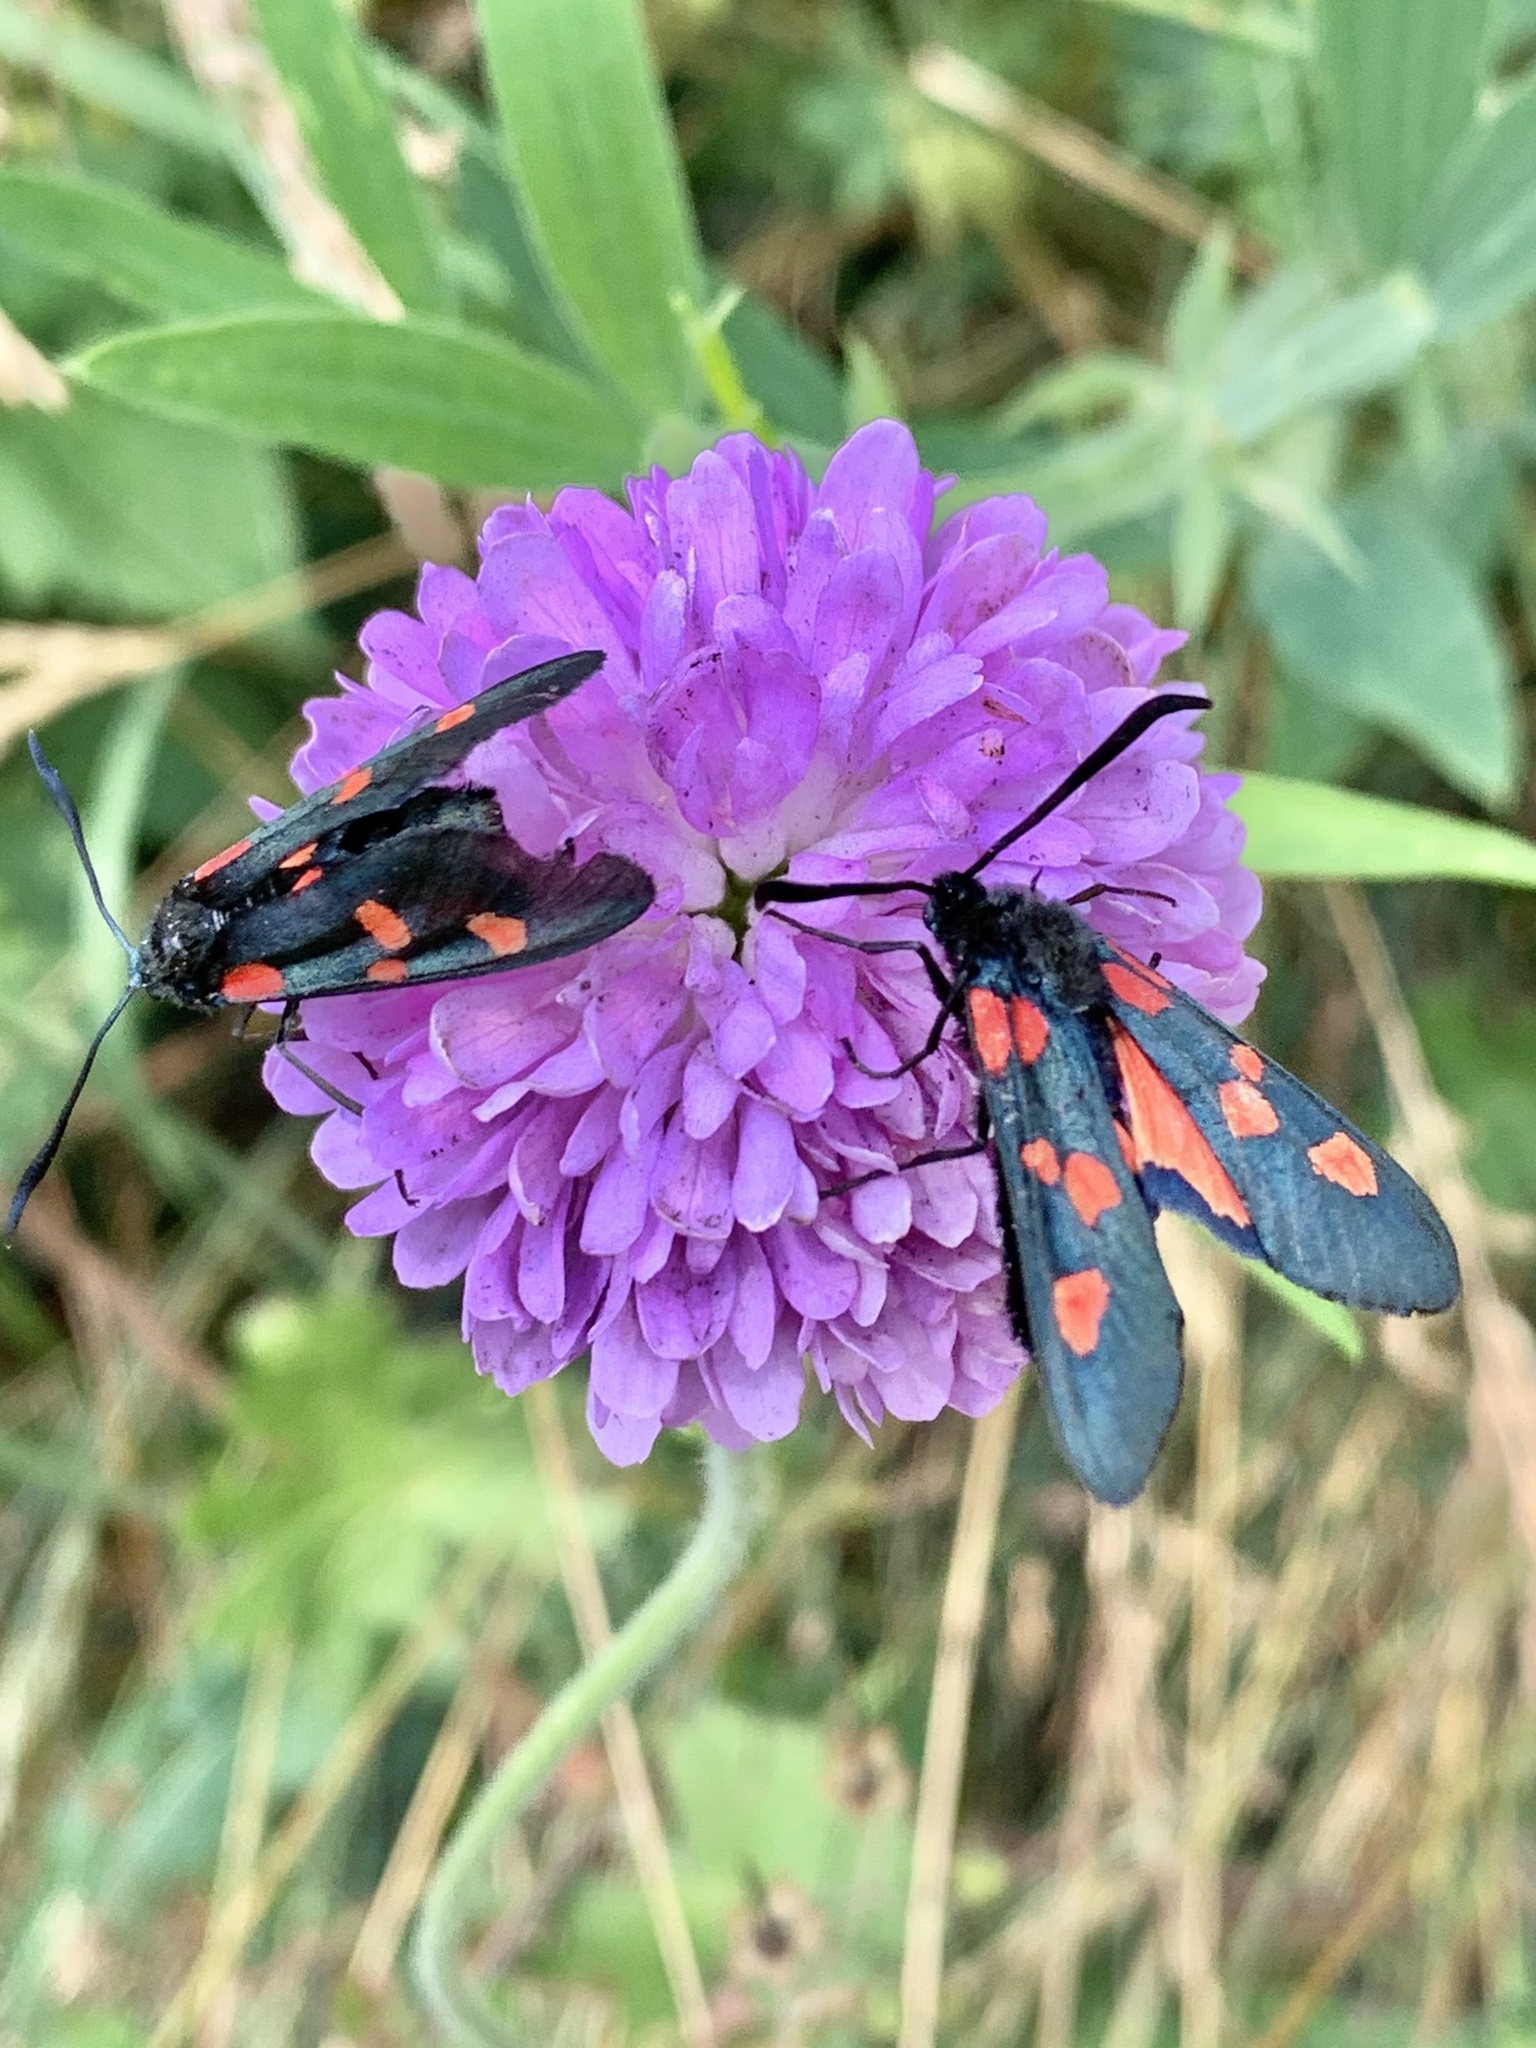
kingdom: Animalia
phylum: Arthropoda
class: Insecta
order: Lepidoptera
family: Zygaenidae
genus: Zygaena
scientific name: Zygaena lonicerae
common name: Narrow-bordered five-spot burnet
